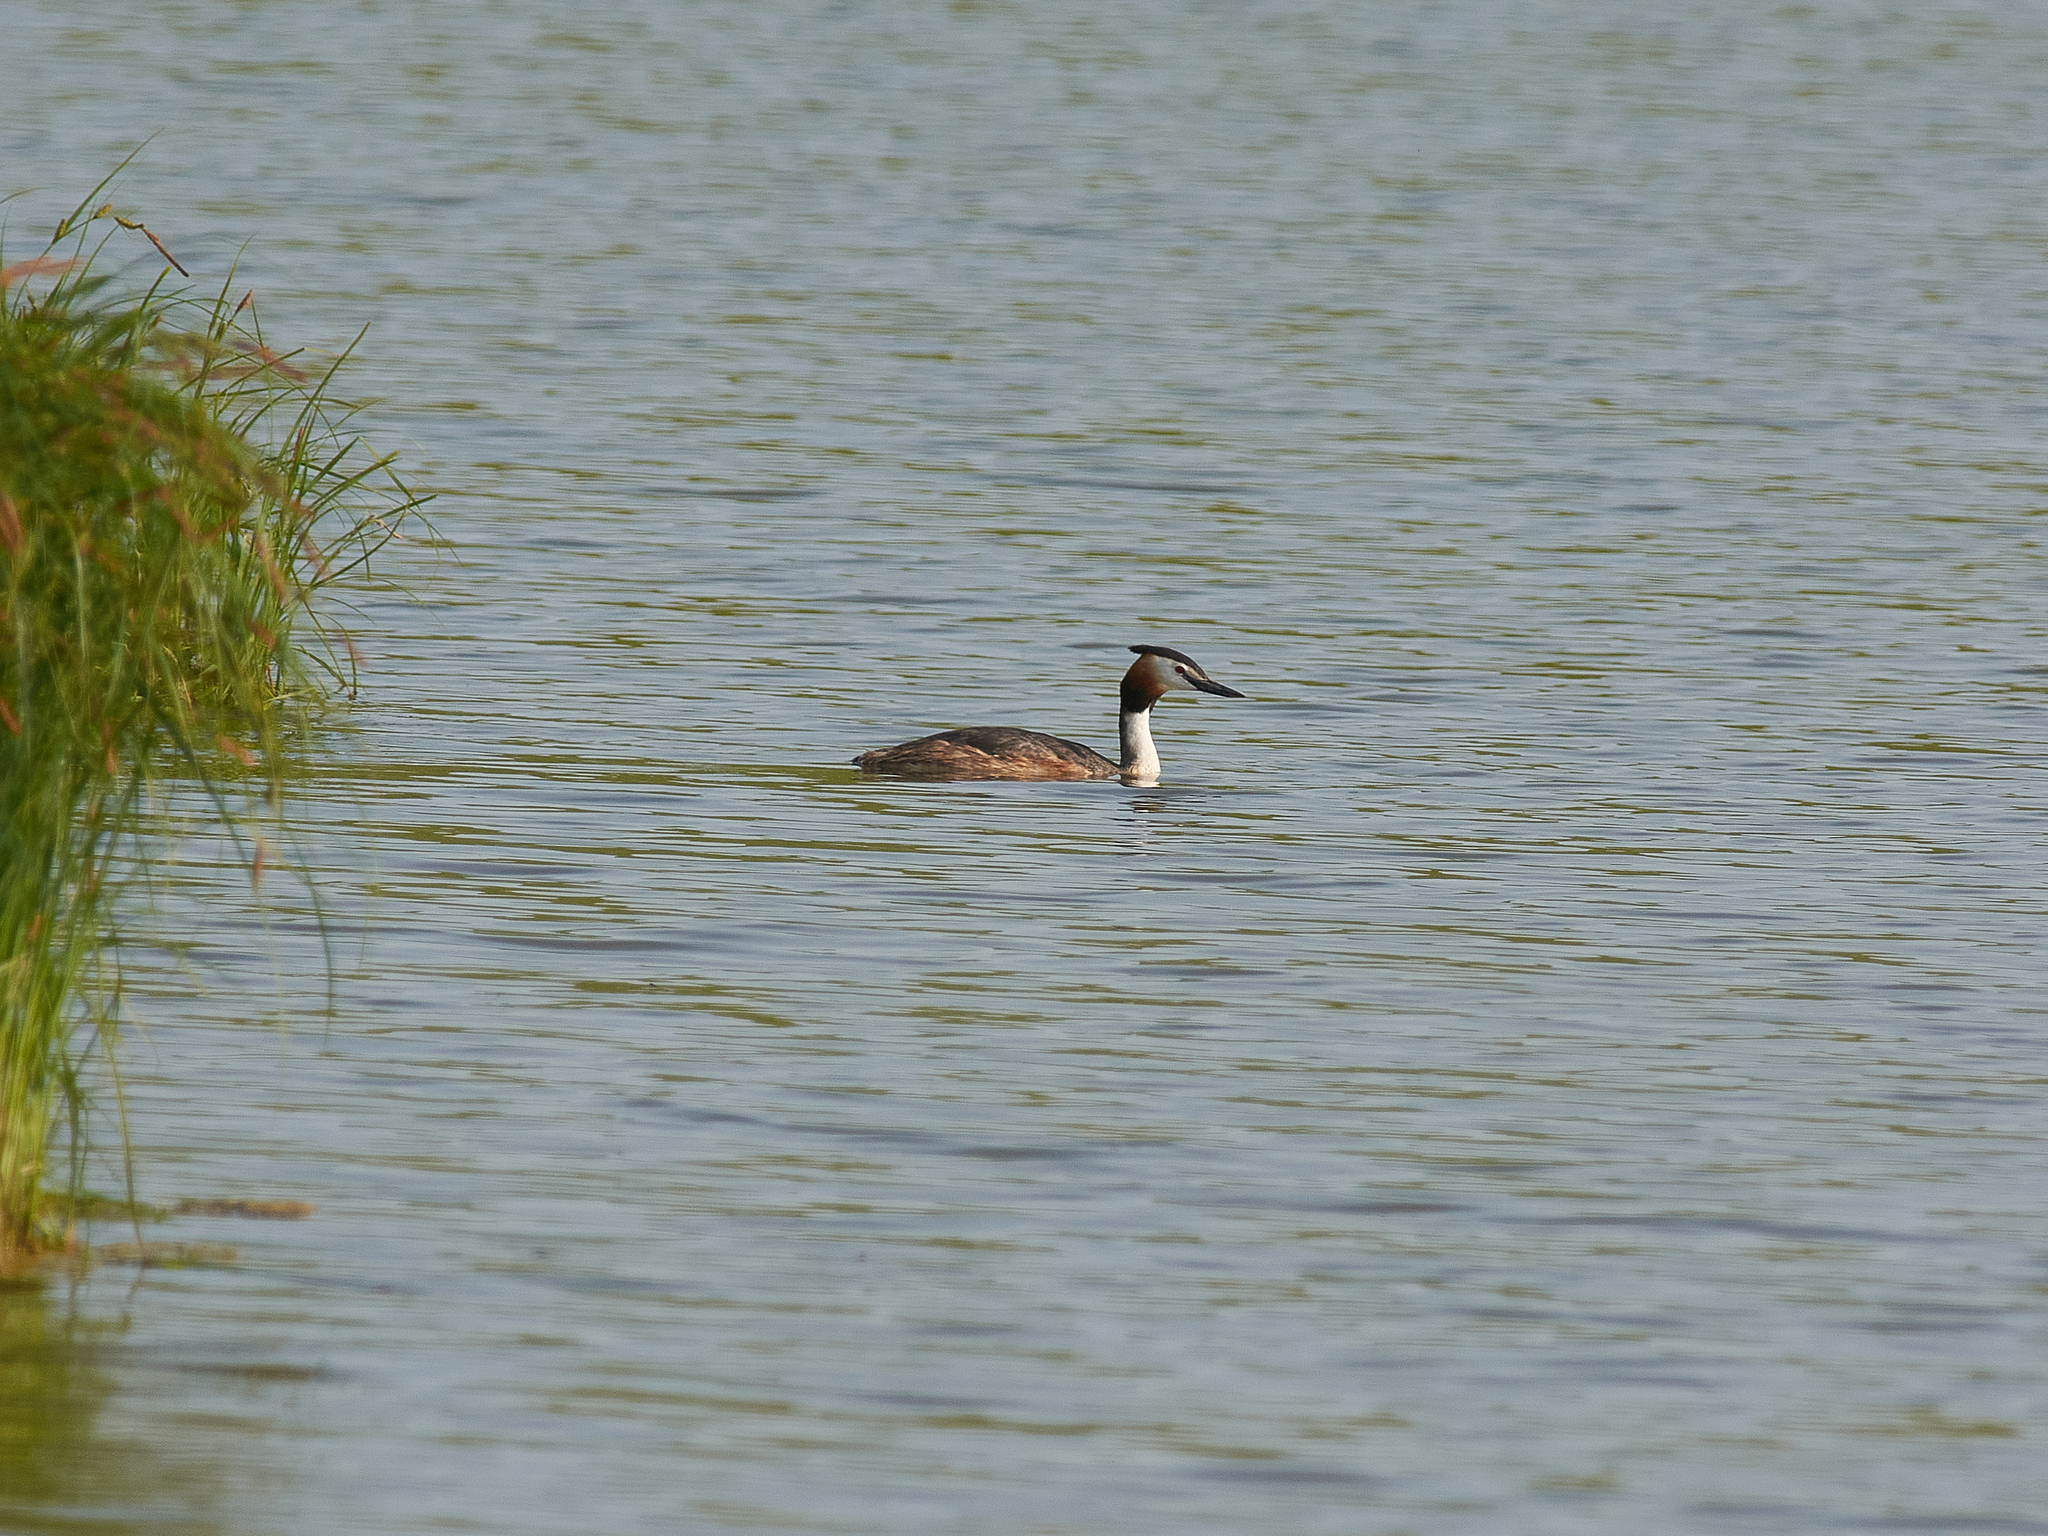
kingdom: Animalia
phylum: Chordata
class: Aves
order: Podicipediformes
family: Podicipedidae
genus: Podiceps
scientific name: Podiceps cristatus
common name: Great crested grebe
